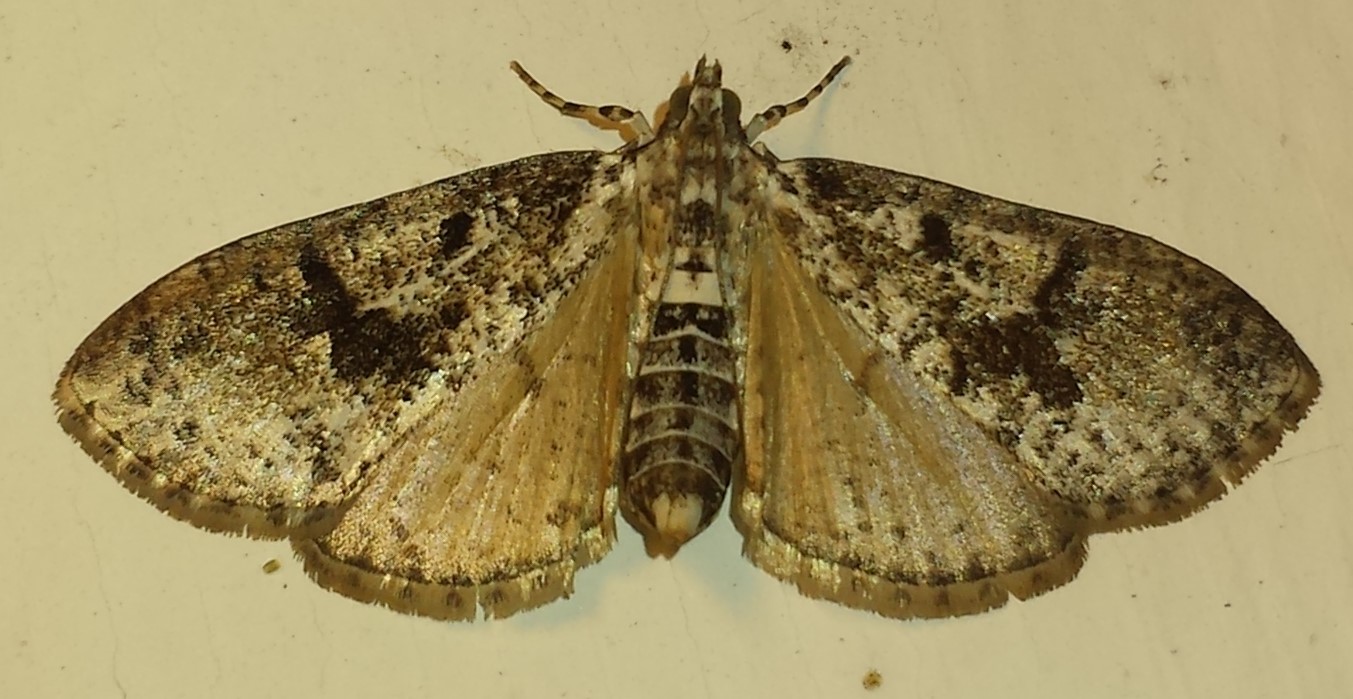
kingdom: Animalia
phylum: Arthropoda
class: Insecta
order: Lepidoptera
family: Crambidae
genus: Palpita
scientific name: Palpita magniferalis
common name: Splendid palpita moth
